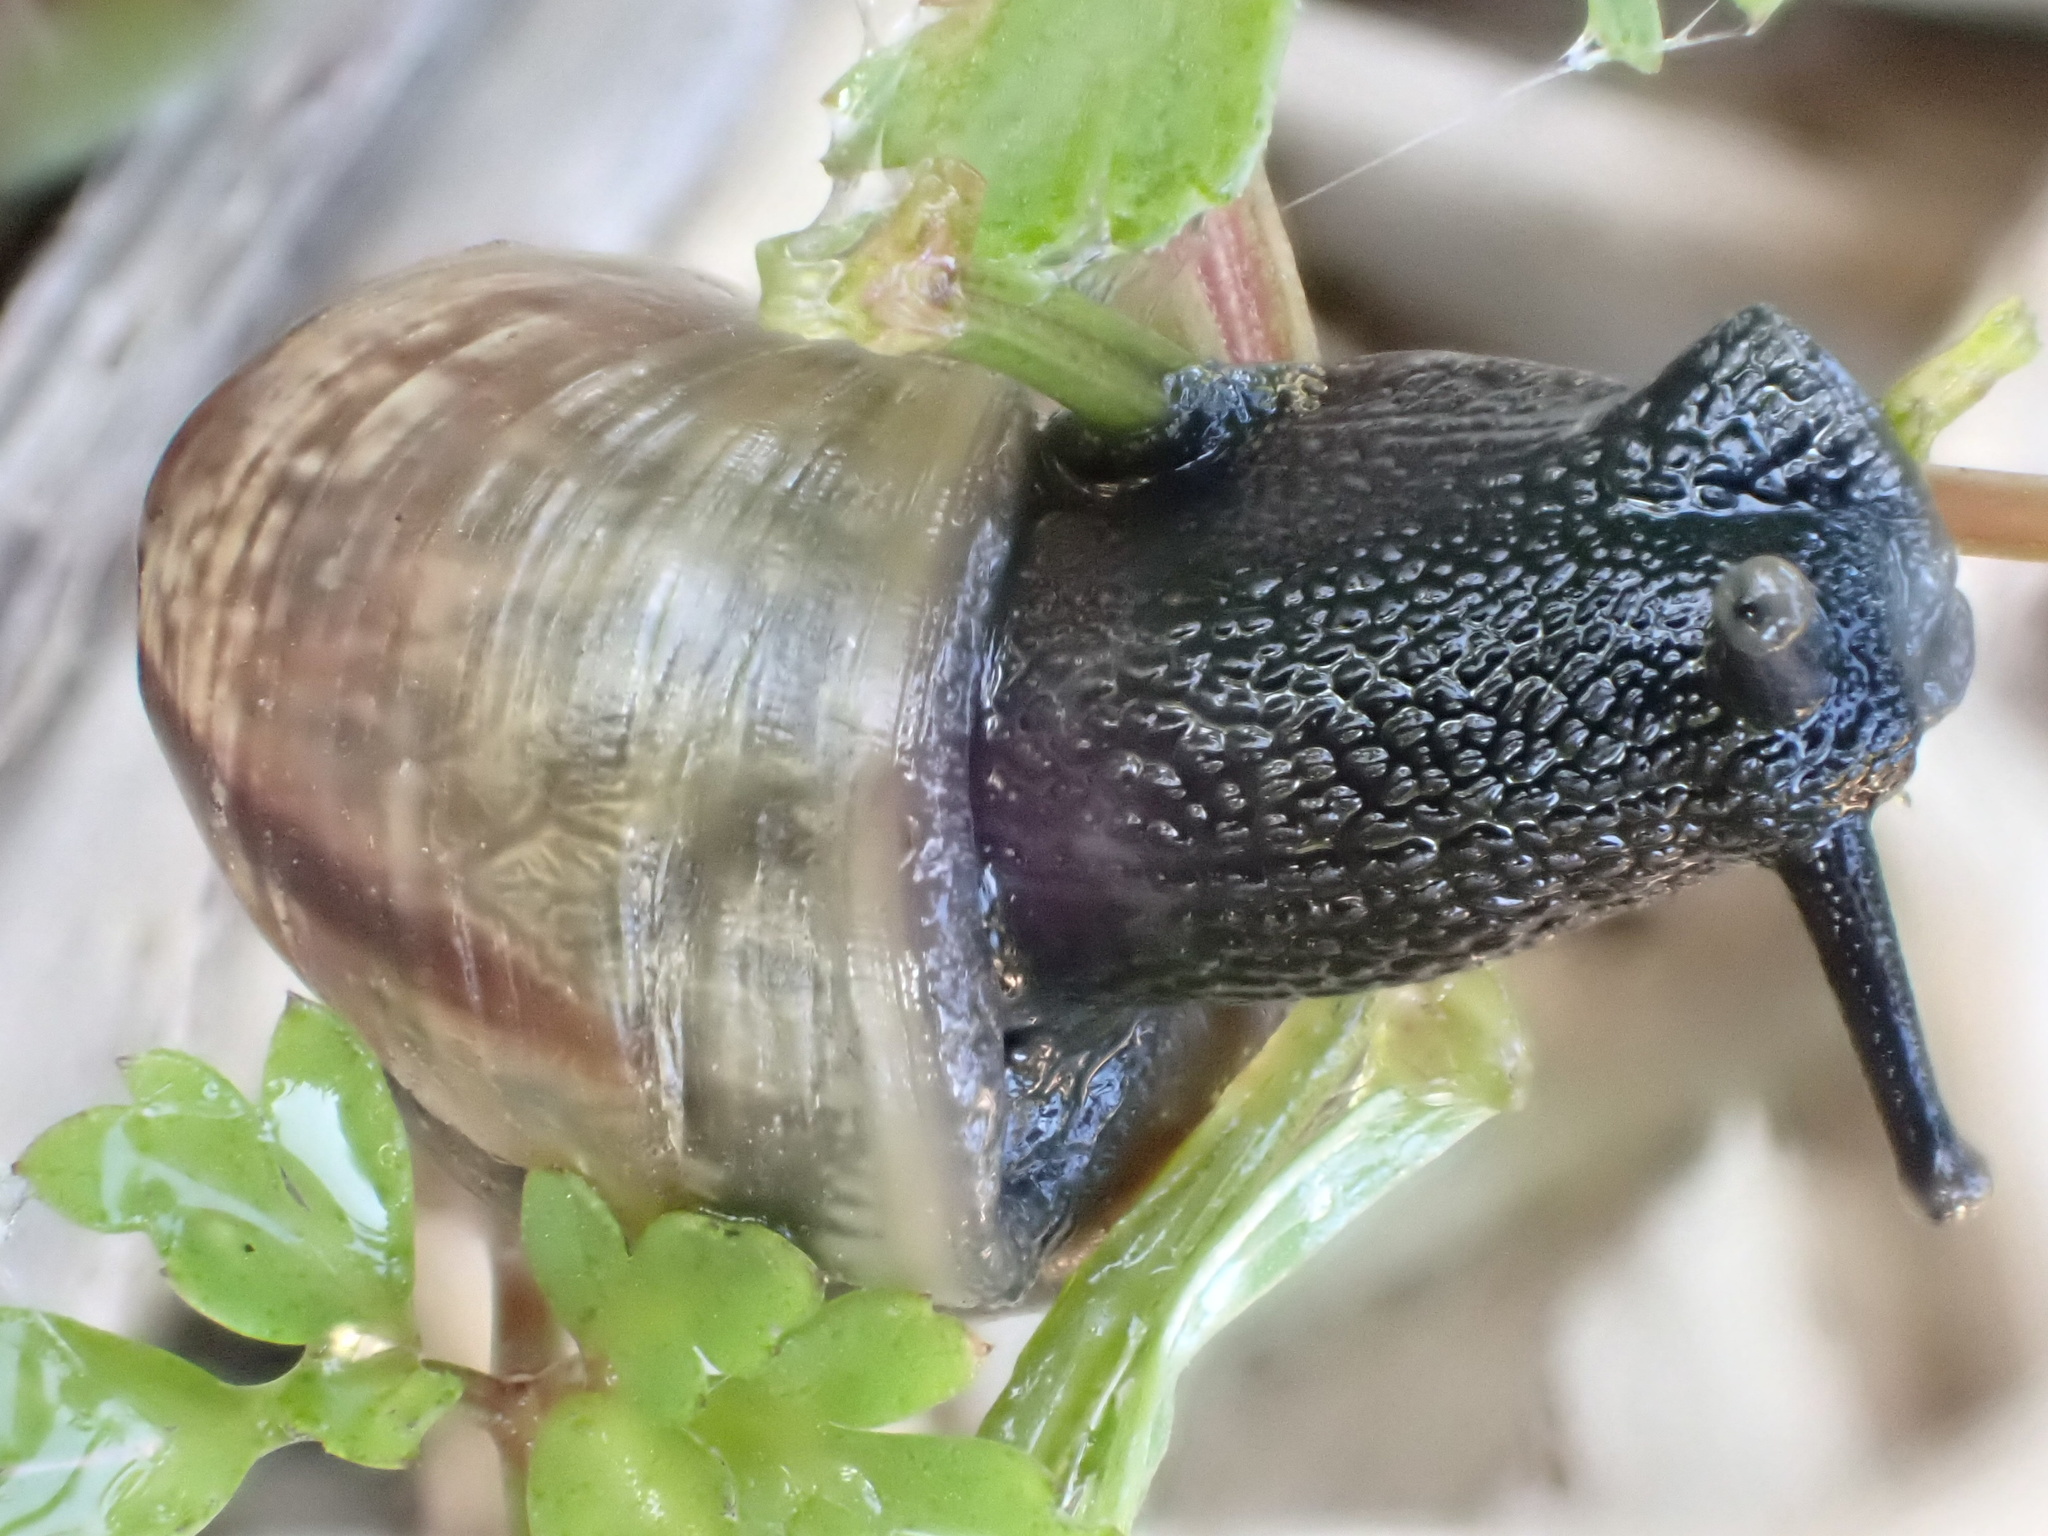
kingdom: Animalia
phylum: Mollusca
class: Gastropoda
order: Stylommatophora
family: Helicidae
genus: Arianta
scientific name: Arianta arbustorum
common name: Copse snail
